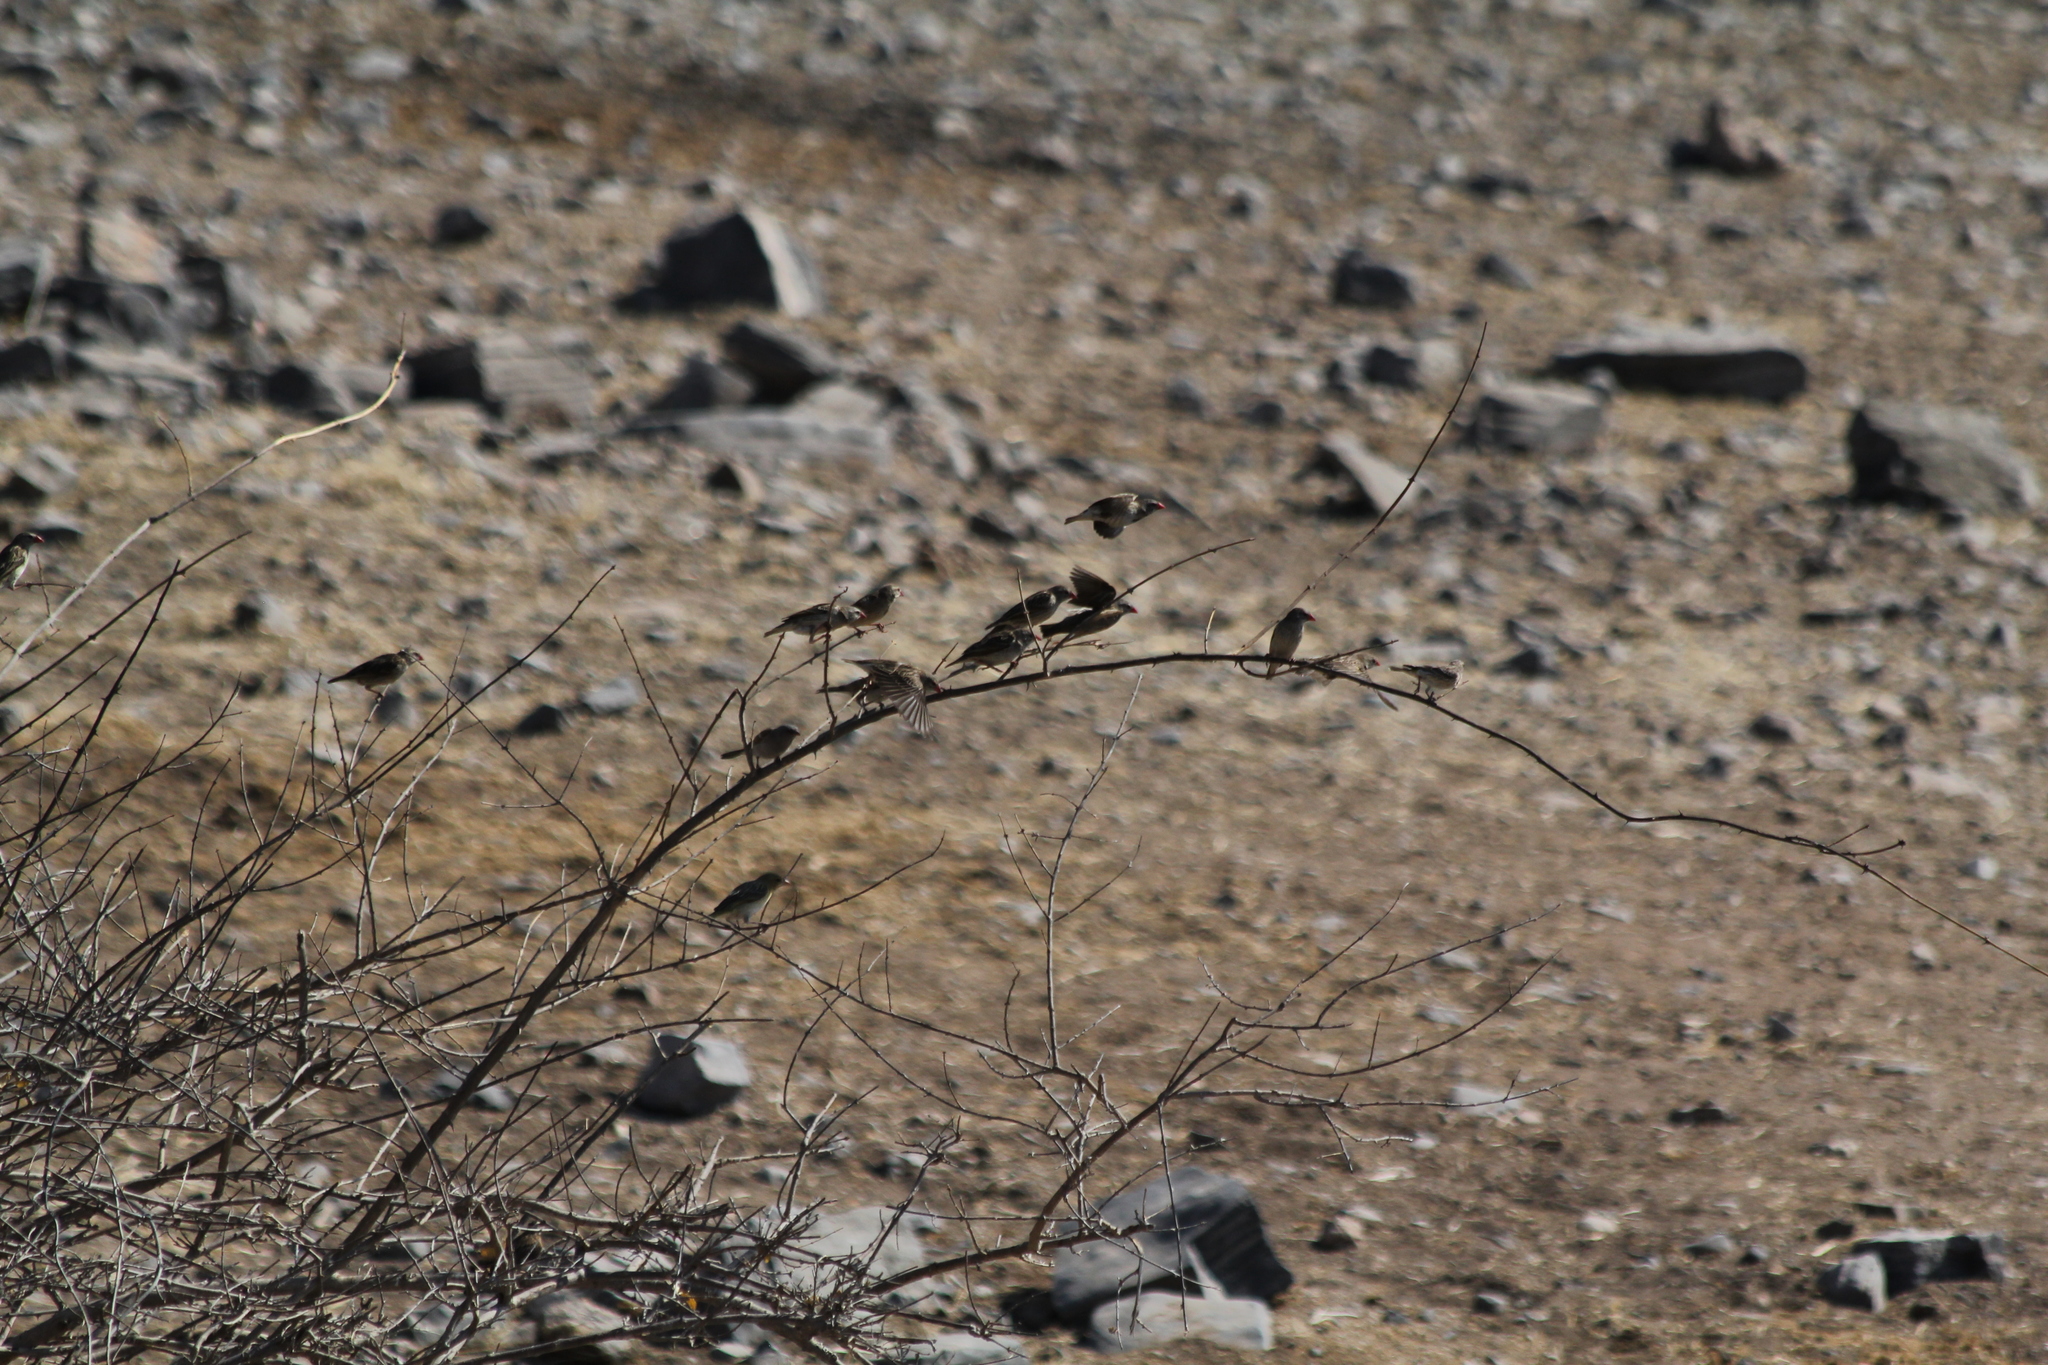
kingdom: Animalia
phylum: Chordata
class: Aves
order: Passeriformes
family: Ploceidae
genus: Quelea
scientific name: Quelea quelea
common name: Red-billed quelea
